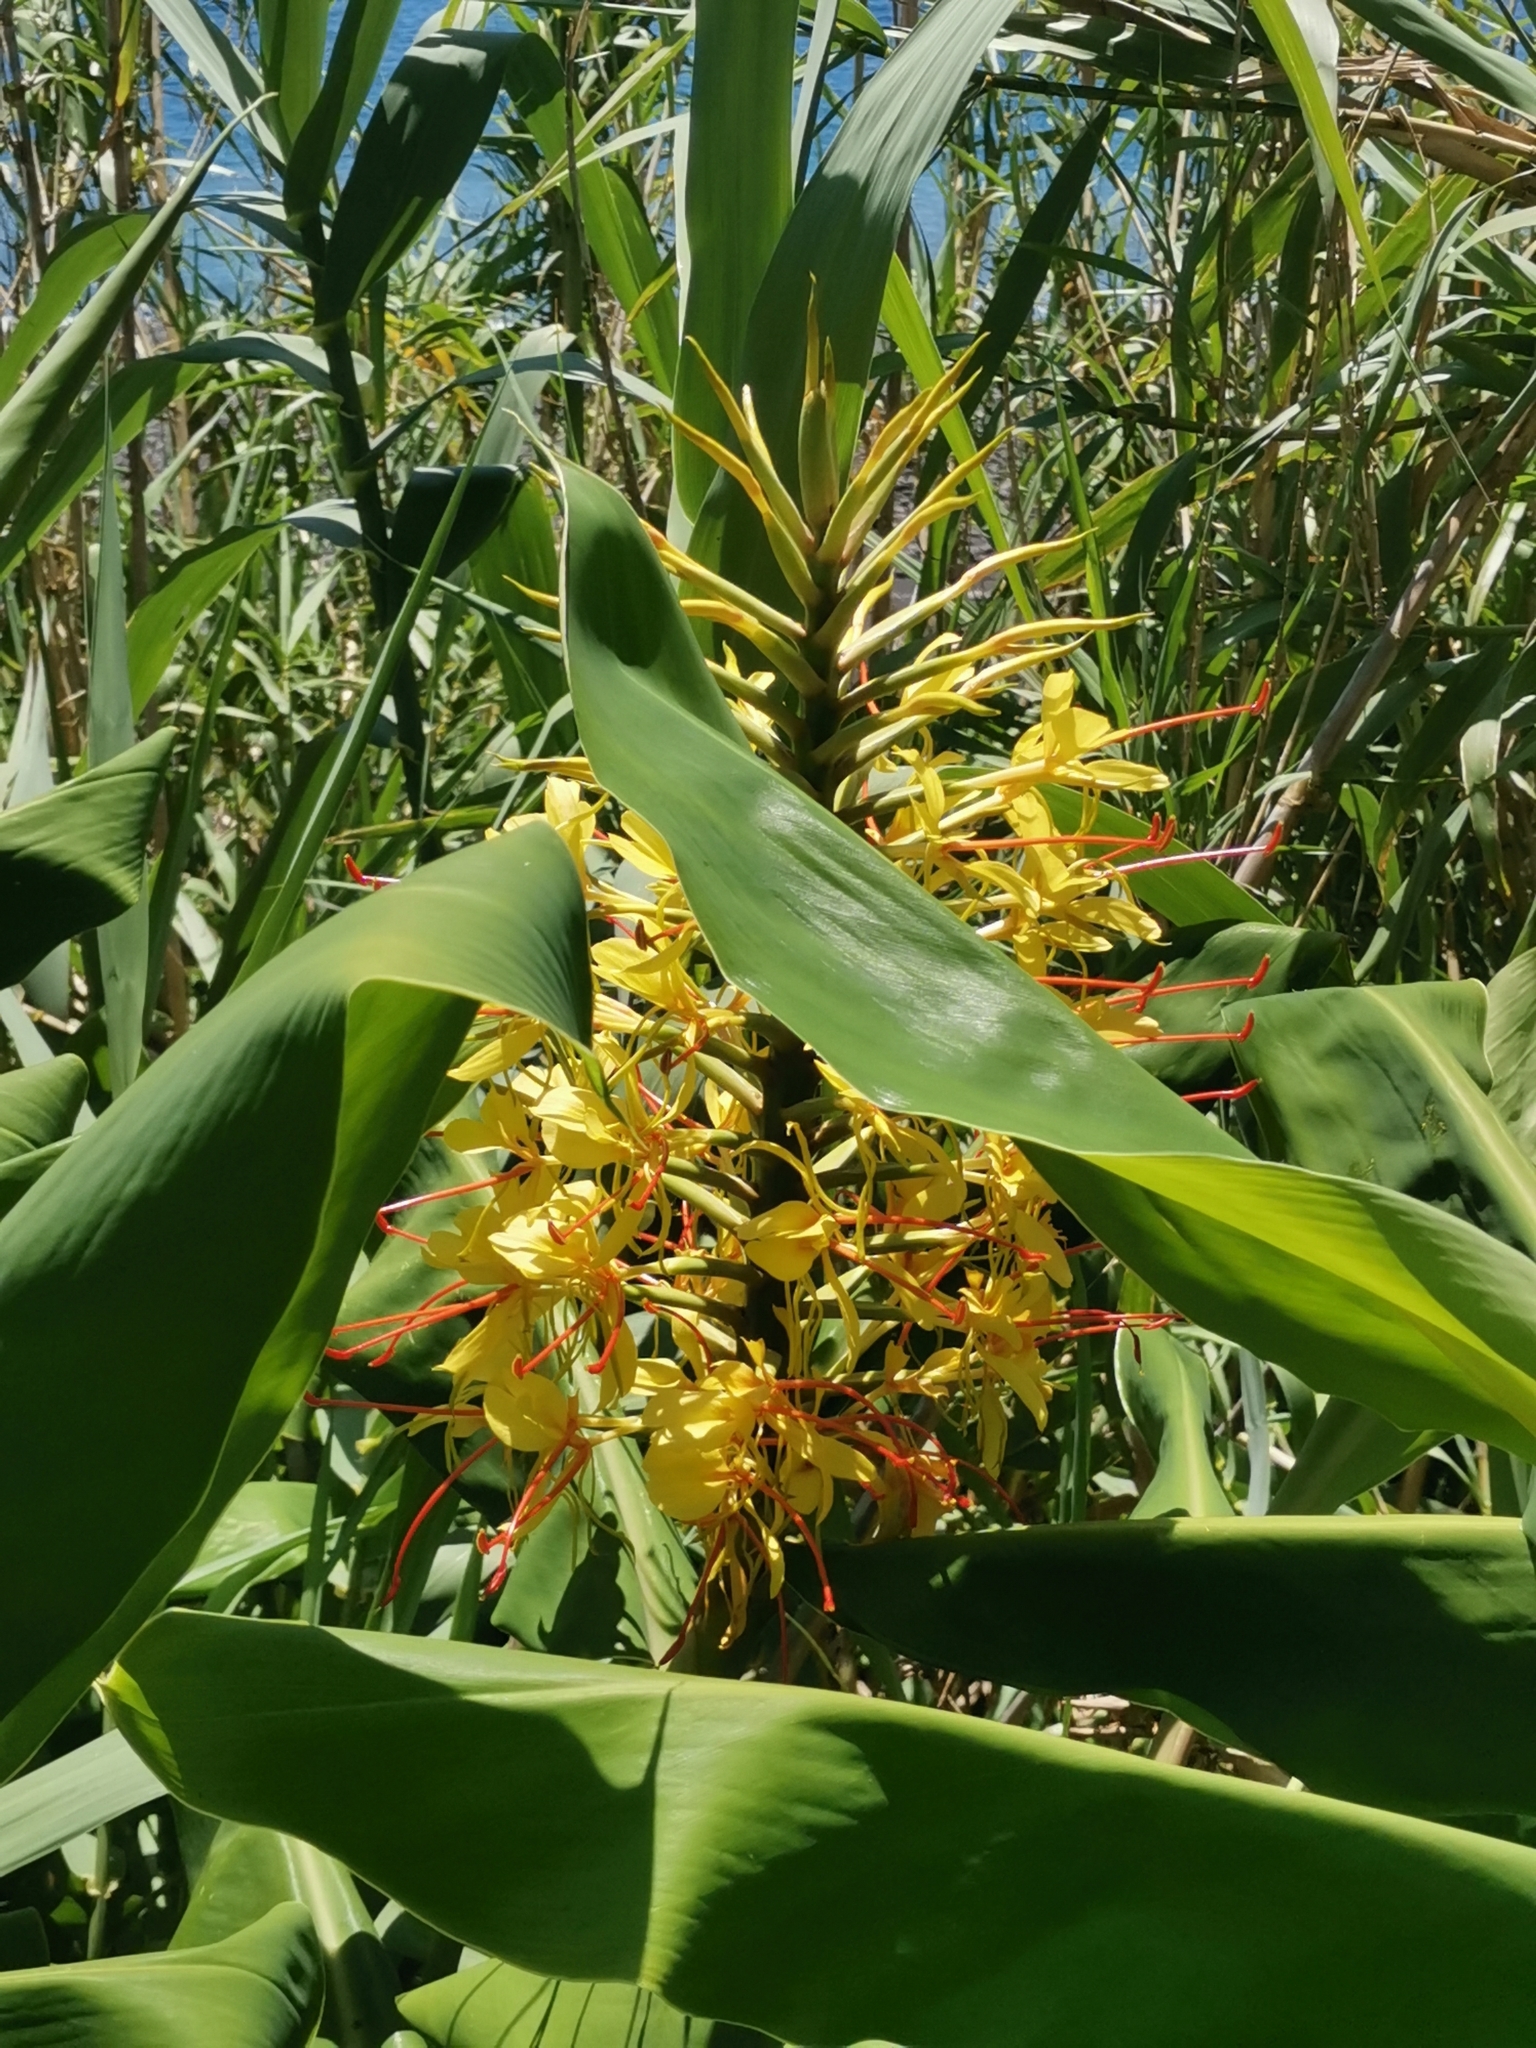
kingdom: Plantae
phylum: Tracheophyta
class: Liliopsida
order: Zingiberales
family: Zingiberaceae
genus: Hedychium
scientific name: Hedychium gardnerianum
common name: Himalayan ginger
